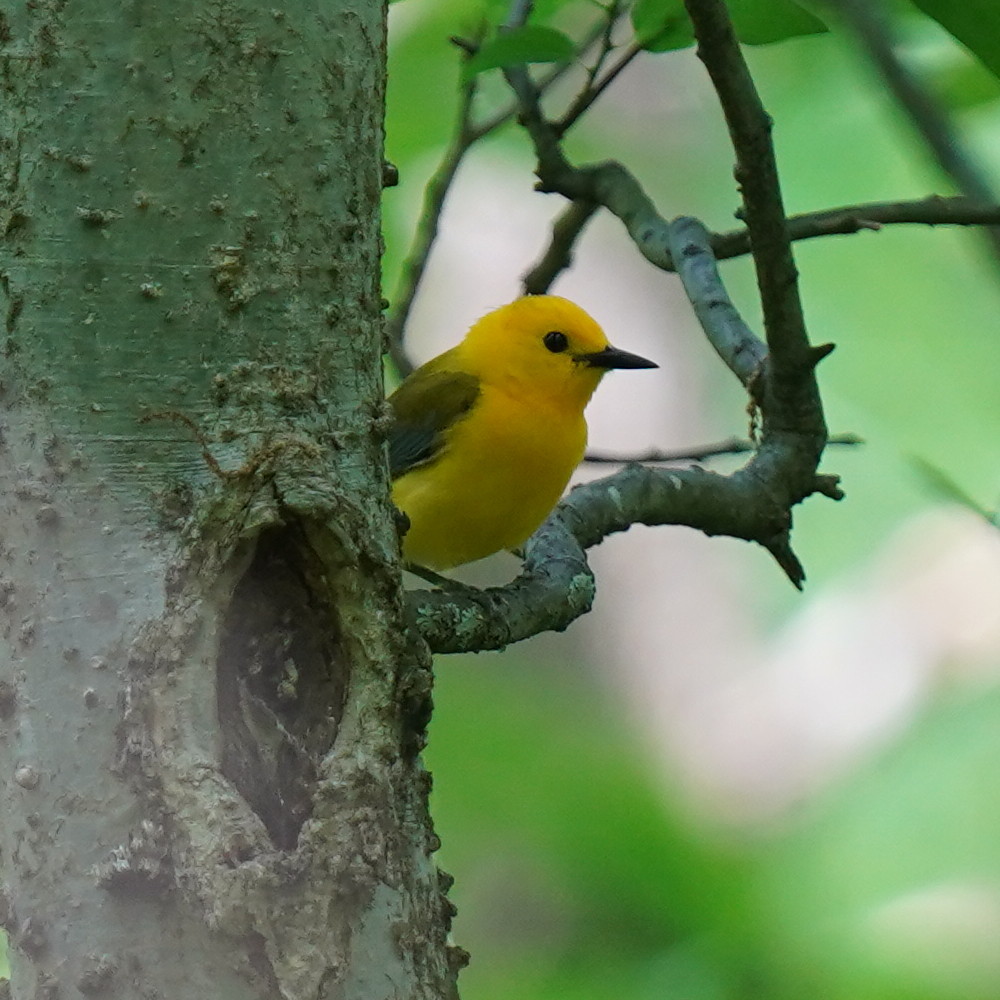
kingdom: Animalia
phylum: Chordata
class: Aves
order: Passeriformes
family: Parulidae
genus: Protonotaria
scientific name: Protonotaria citrea
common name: Prothonotary warbler
